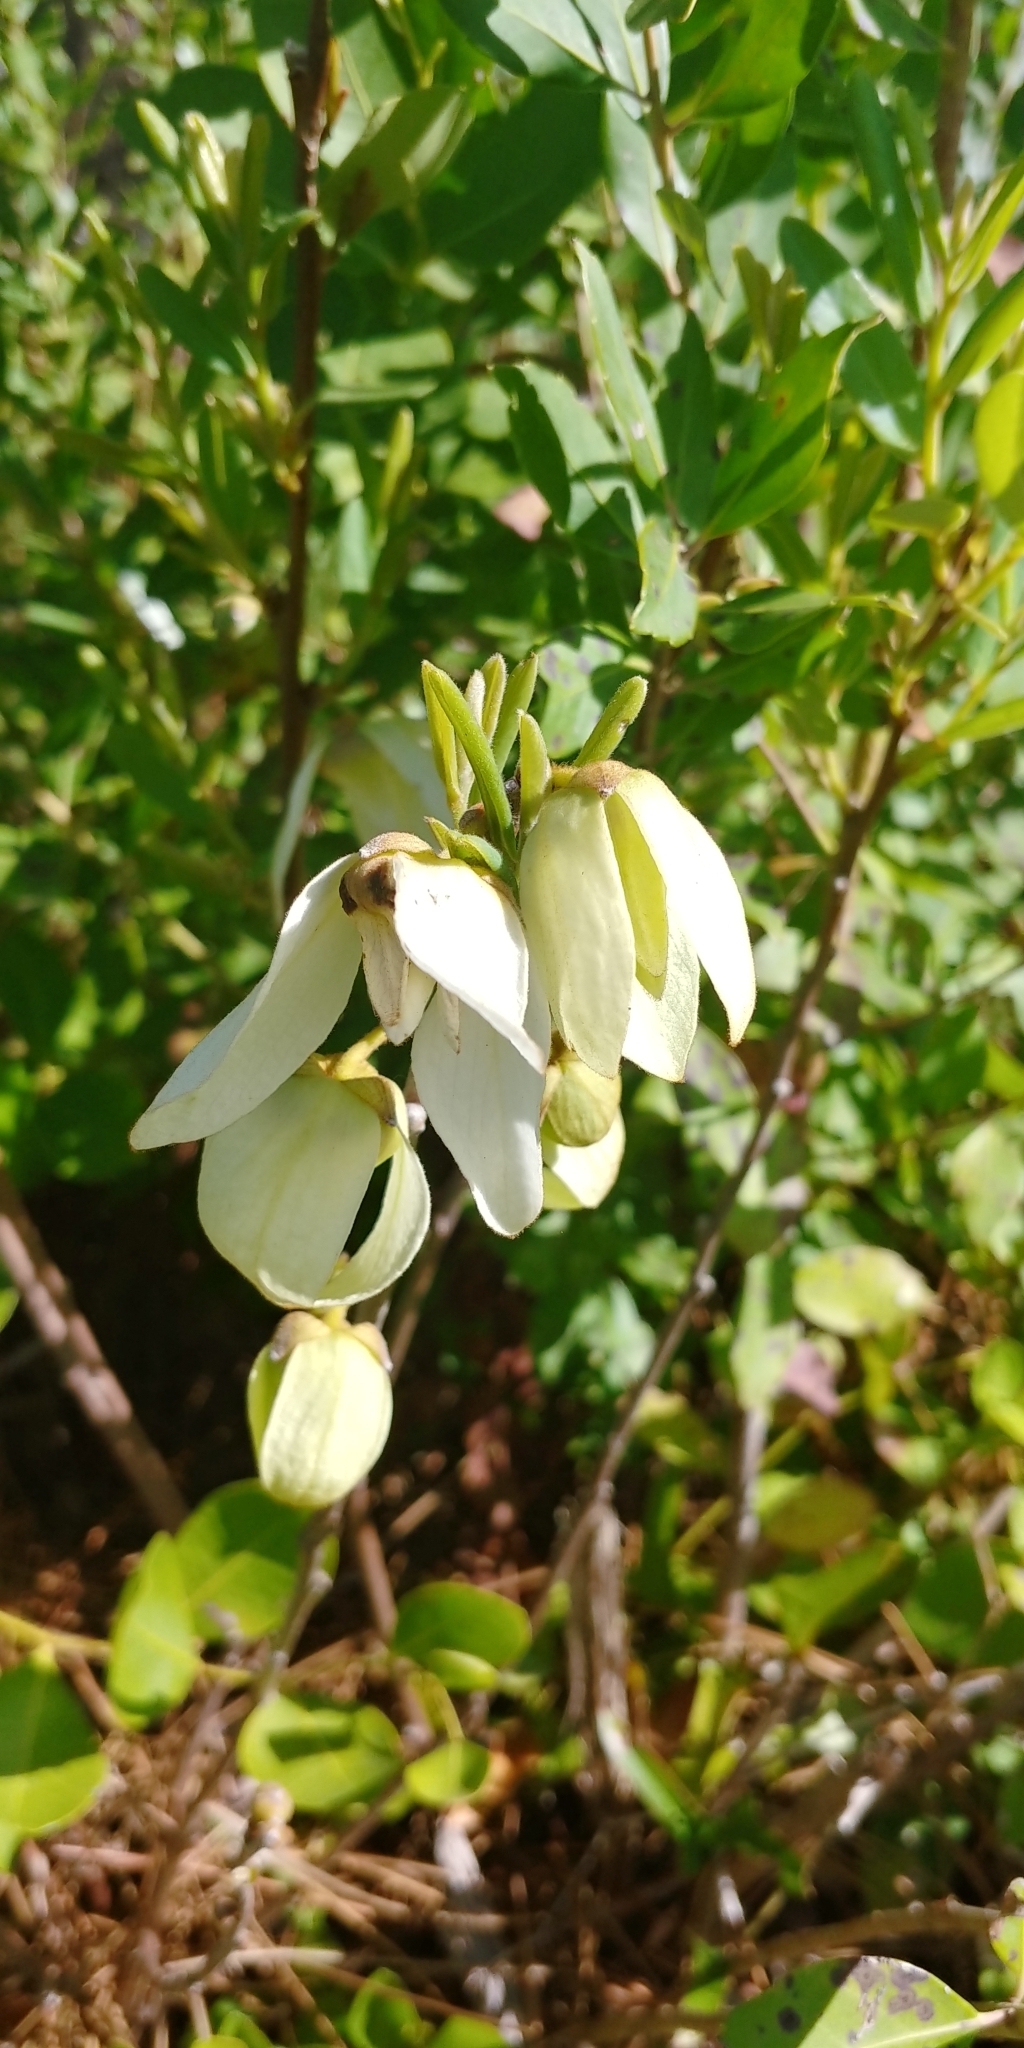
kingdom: Plantae
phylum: Tracheophyta
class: Magnoliopsida
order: Magnoliales
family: Annonaceae
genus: Asimina
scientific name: Asimina reticulata
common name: Flag pawpaw
